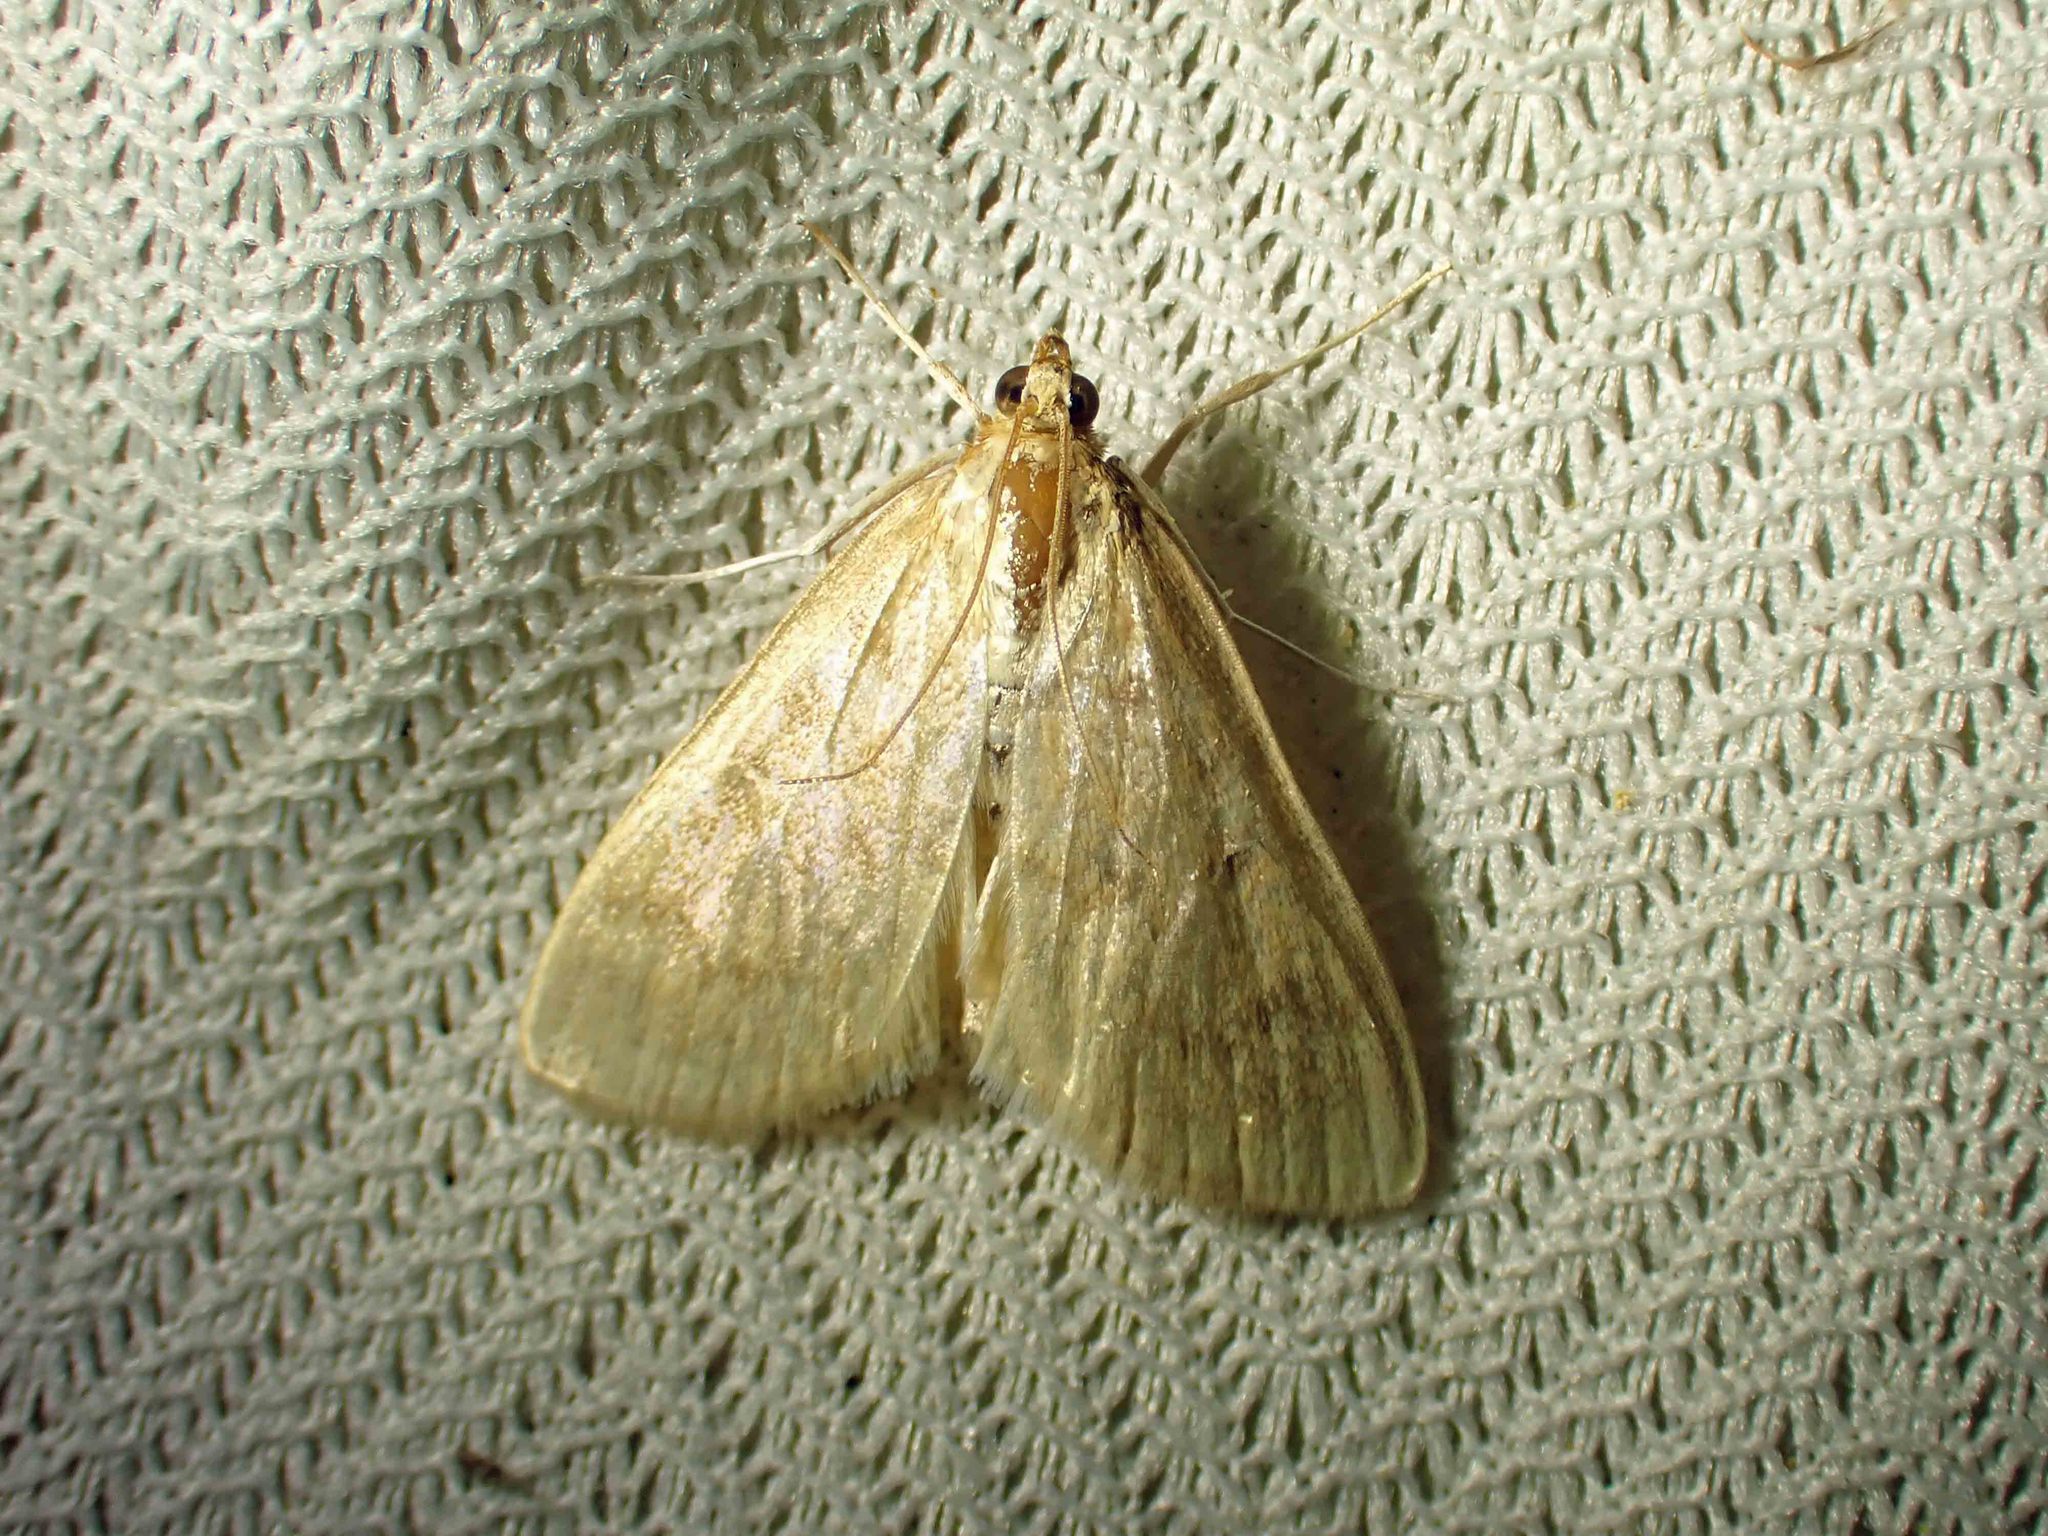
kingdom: Animalia
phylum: Arthropoda
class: Insecta
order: Lepidoptera
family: Crambidae
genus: Anania
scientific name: Anania Framinghamia helvalis
